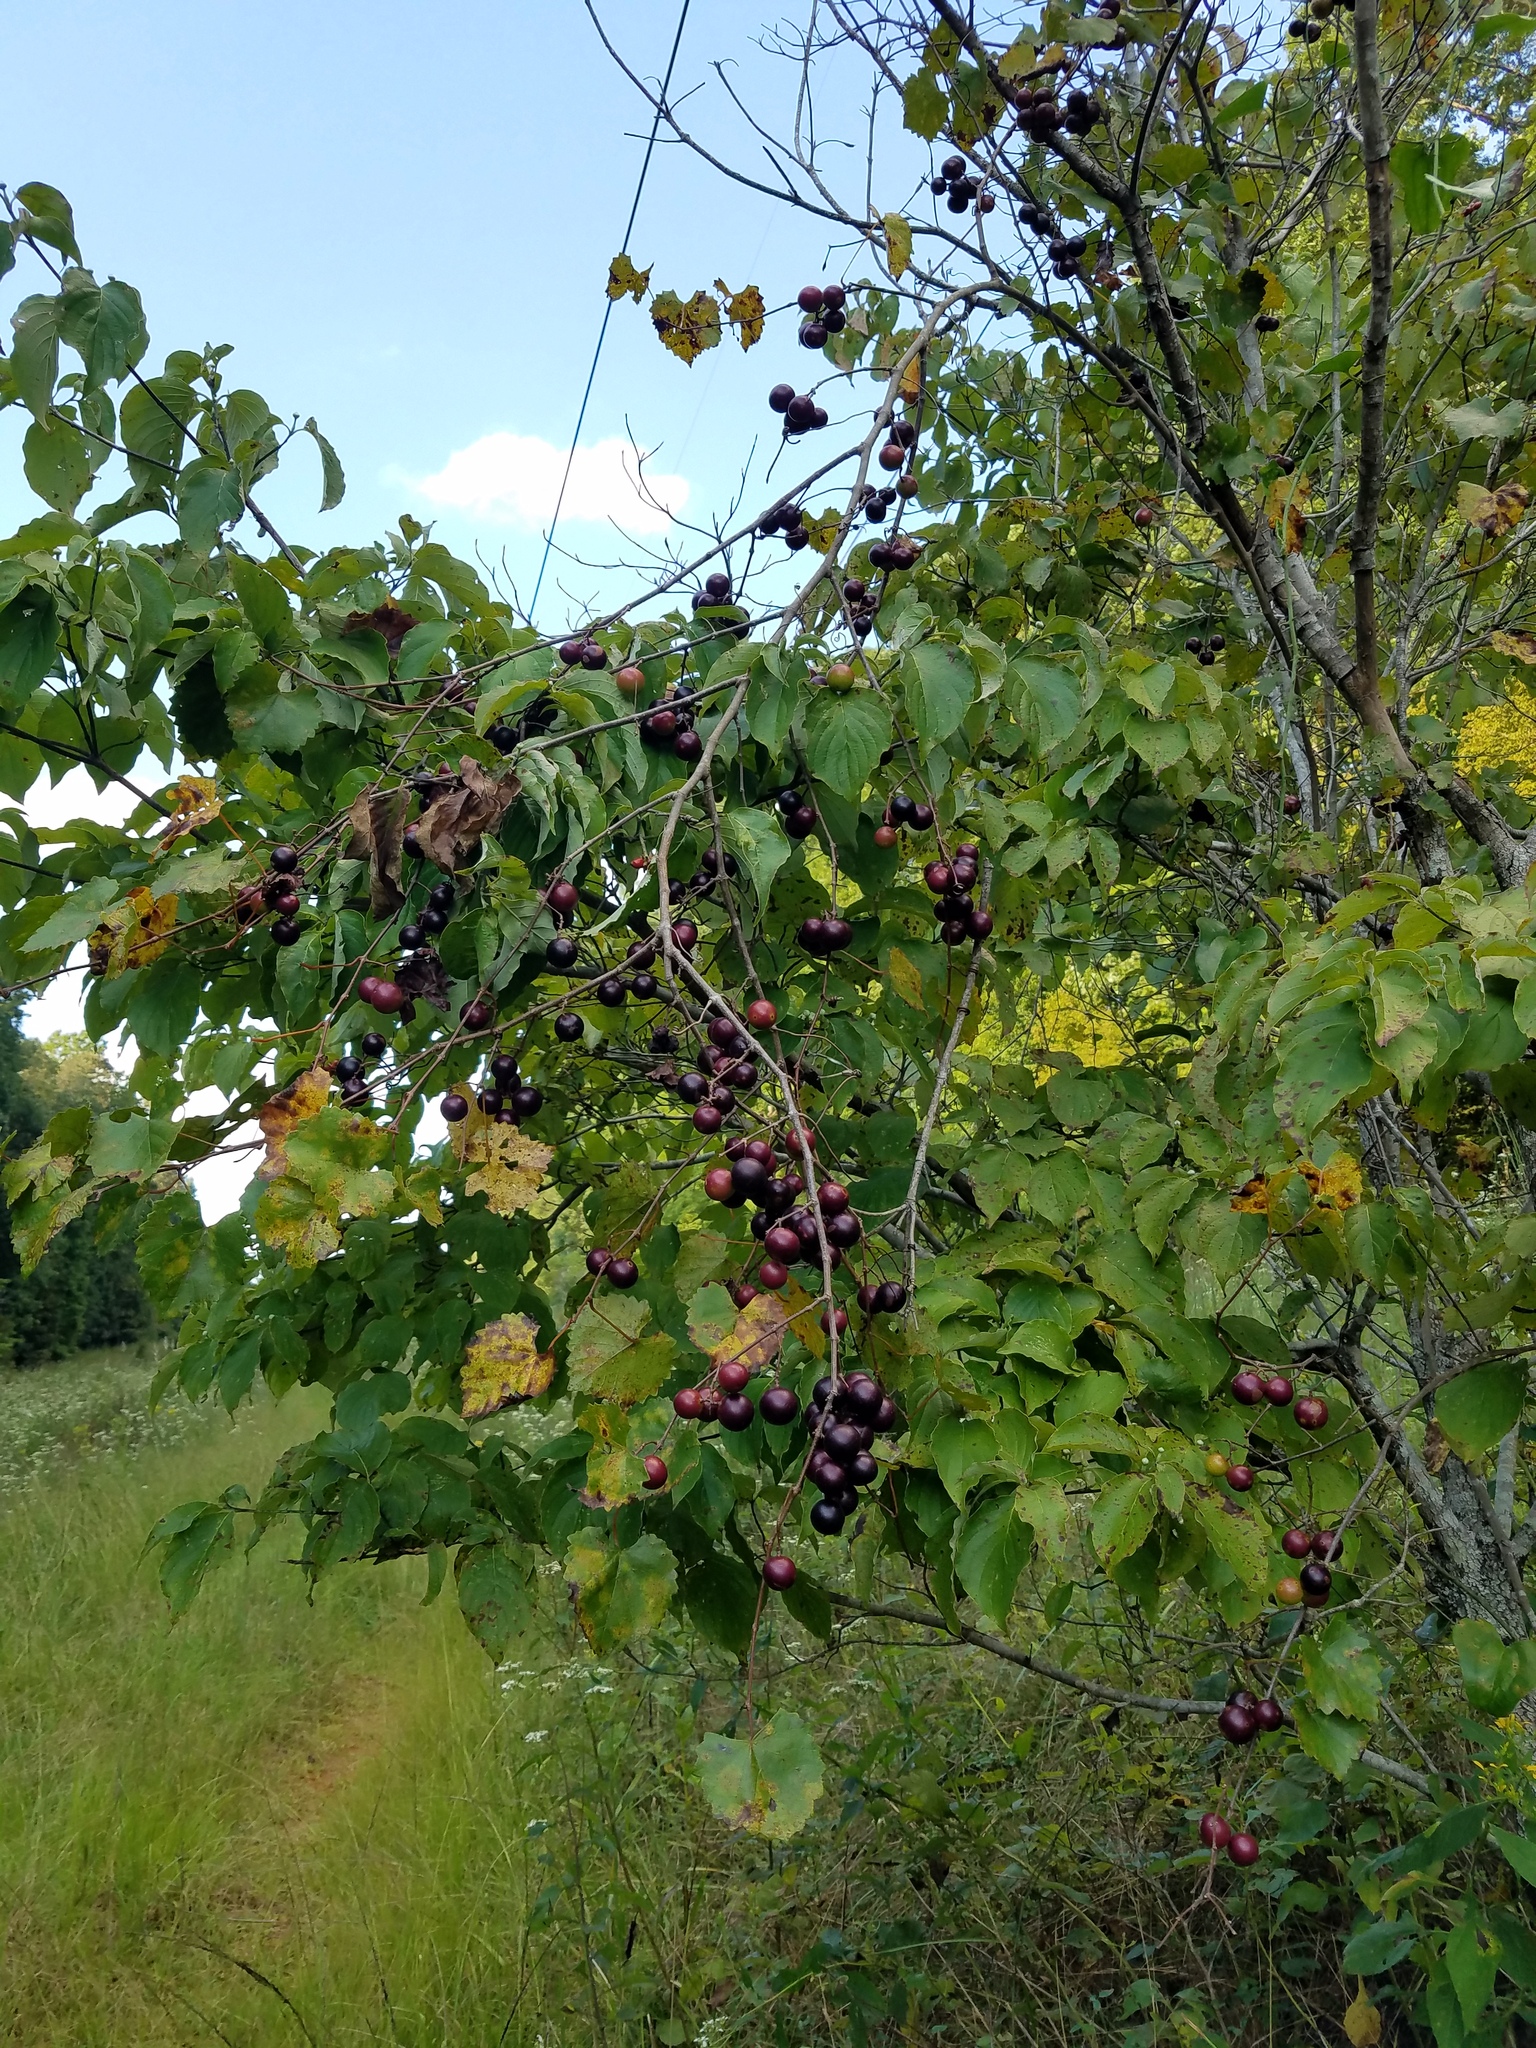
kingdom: Plantae
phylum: Tracheophyta
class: Magnoliopsida
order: Vitales
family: Vitaceae
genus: Vitis
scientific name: Vitis rotundifolia
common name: Muscadine grape
